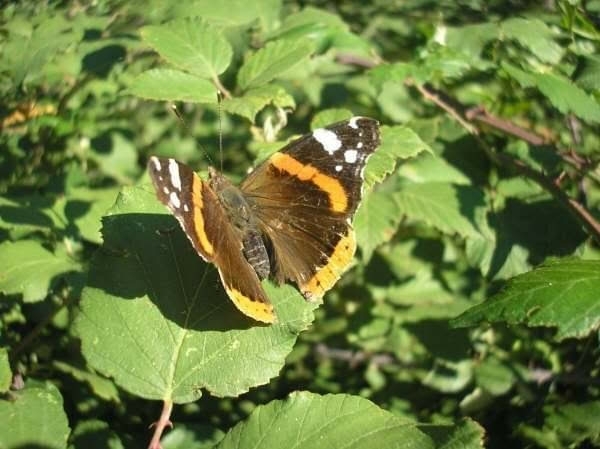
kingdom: Animalia
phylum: Arthropoda
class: Insecta
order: Lepidoptera
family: Nymphalidae
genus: Vanessa
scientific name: Vanessa atalanta
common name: Red admiral
